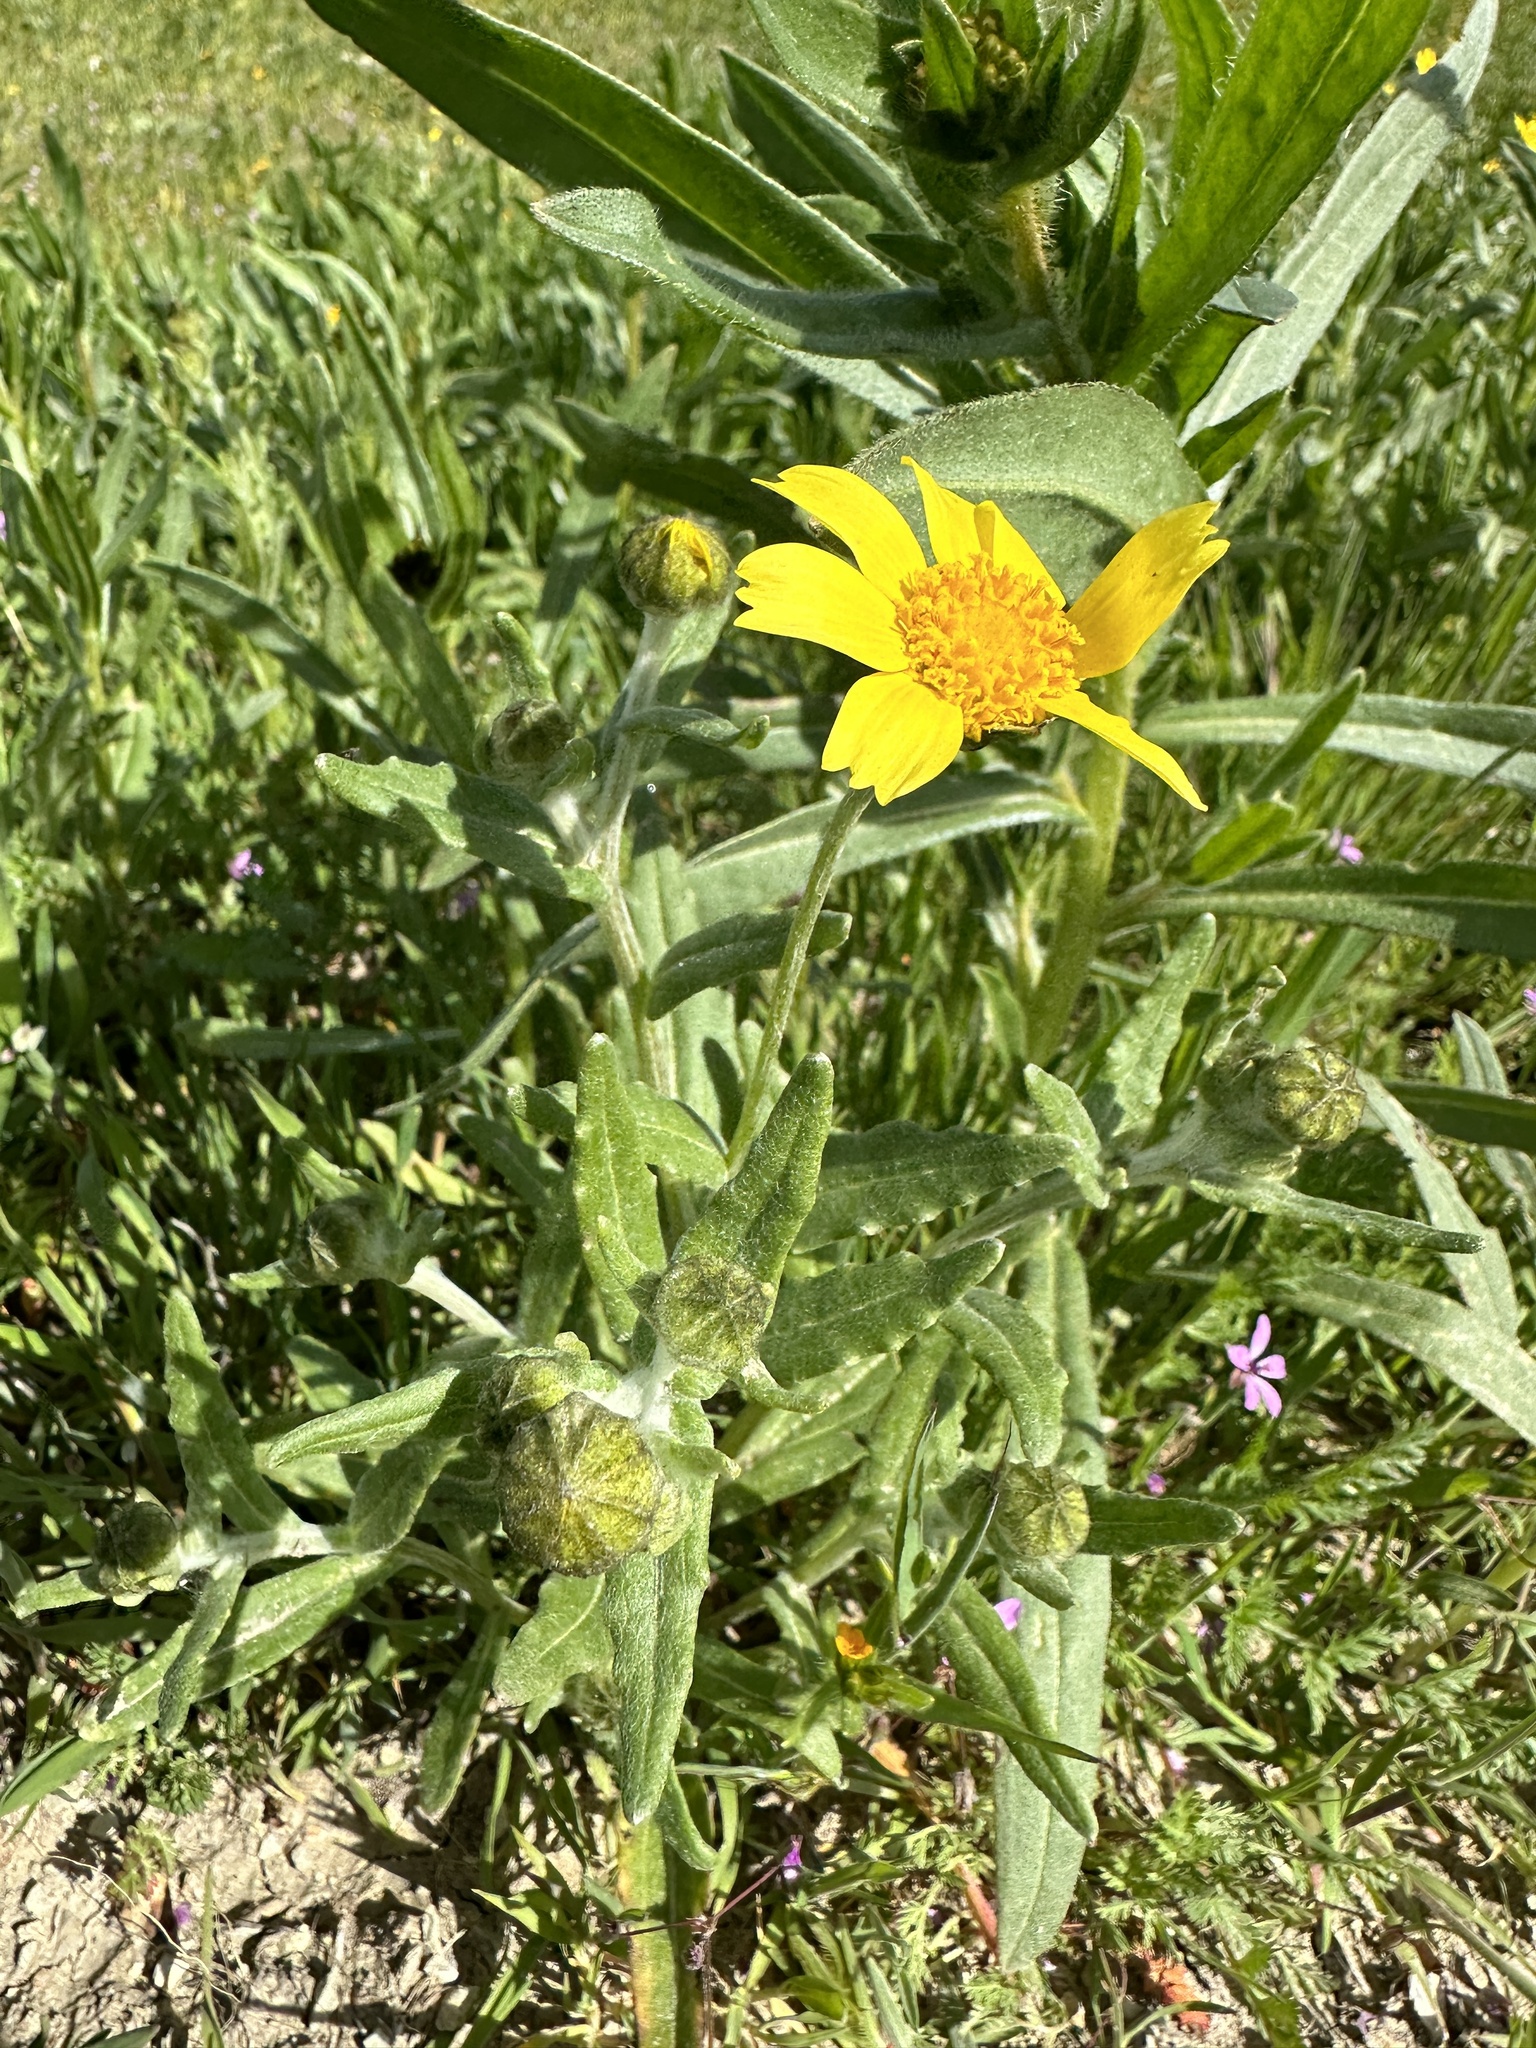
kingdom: Plantae
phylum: Tracheophyta
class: Magnoliopsida
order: Asterales
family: Asteraceae
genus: Monolopia
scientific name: Monolopia lanceolata
